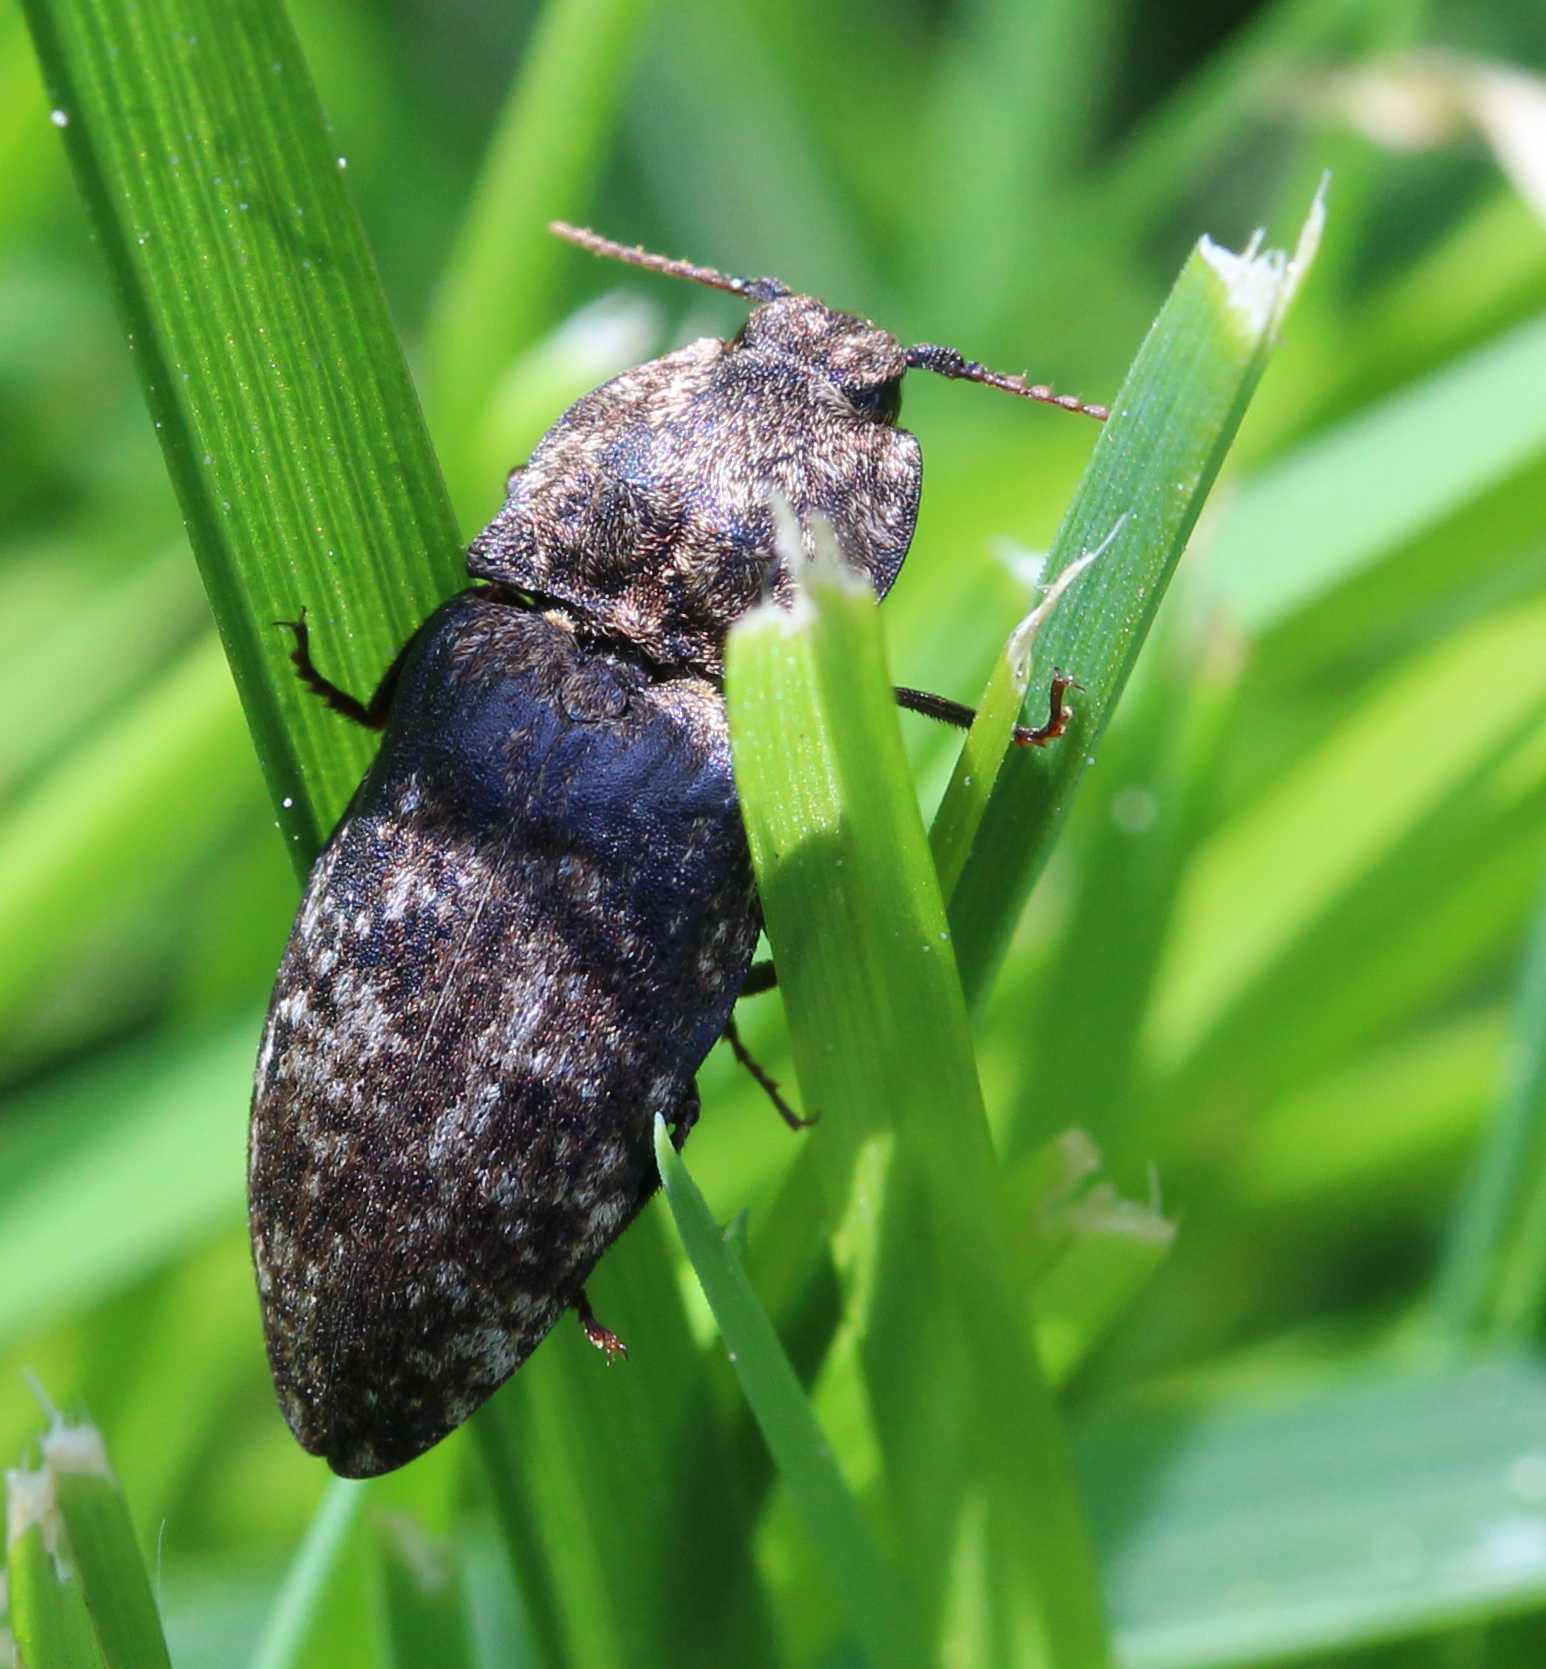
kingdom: Animalia
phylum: Arthropoda
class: Insecta
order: Coleoptera
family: Elateridae
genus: Agrypnus
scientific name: Agrypnus murinus
